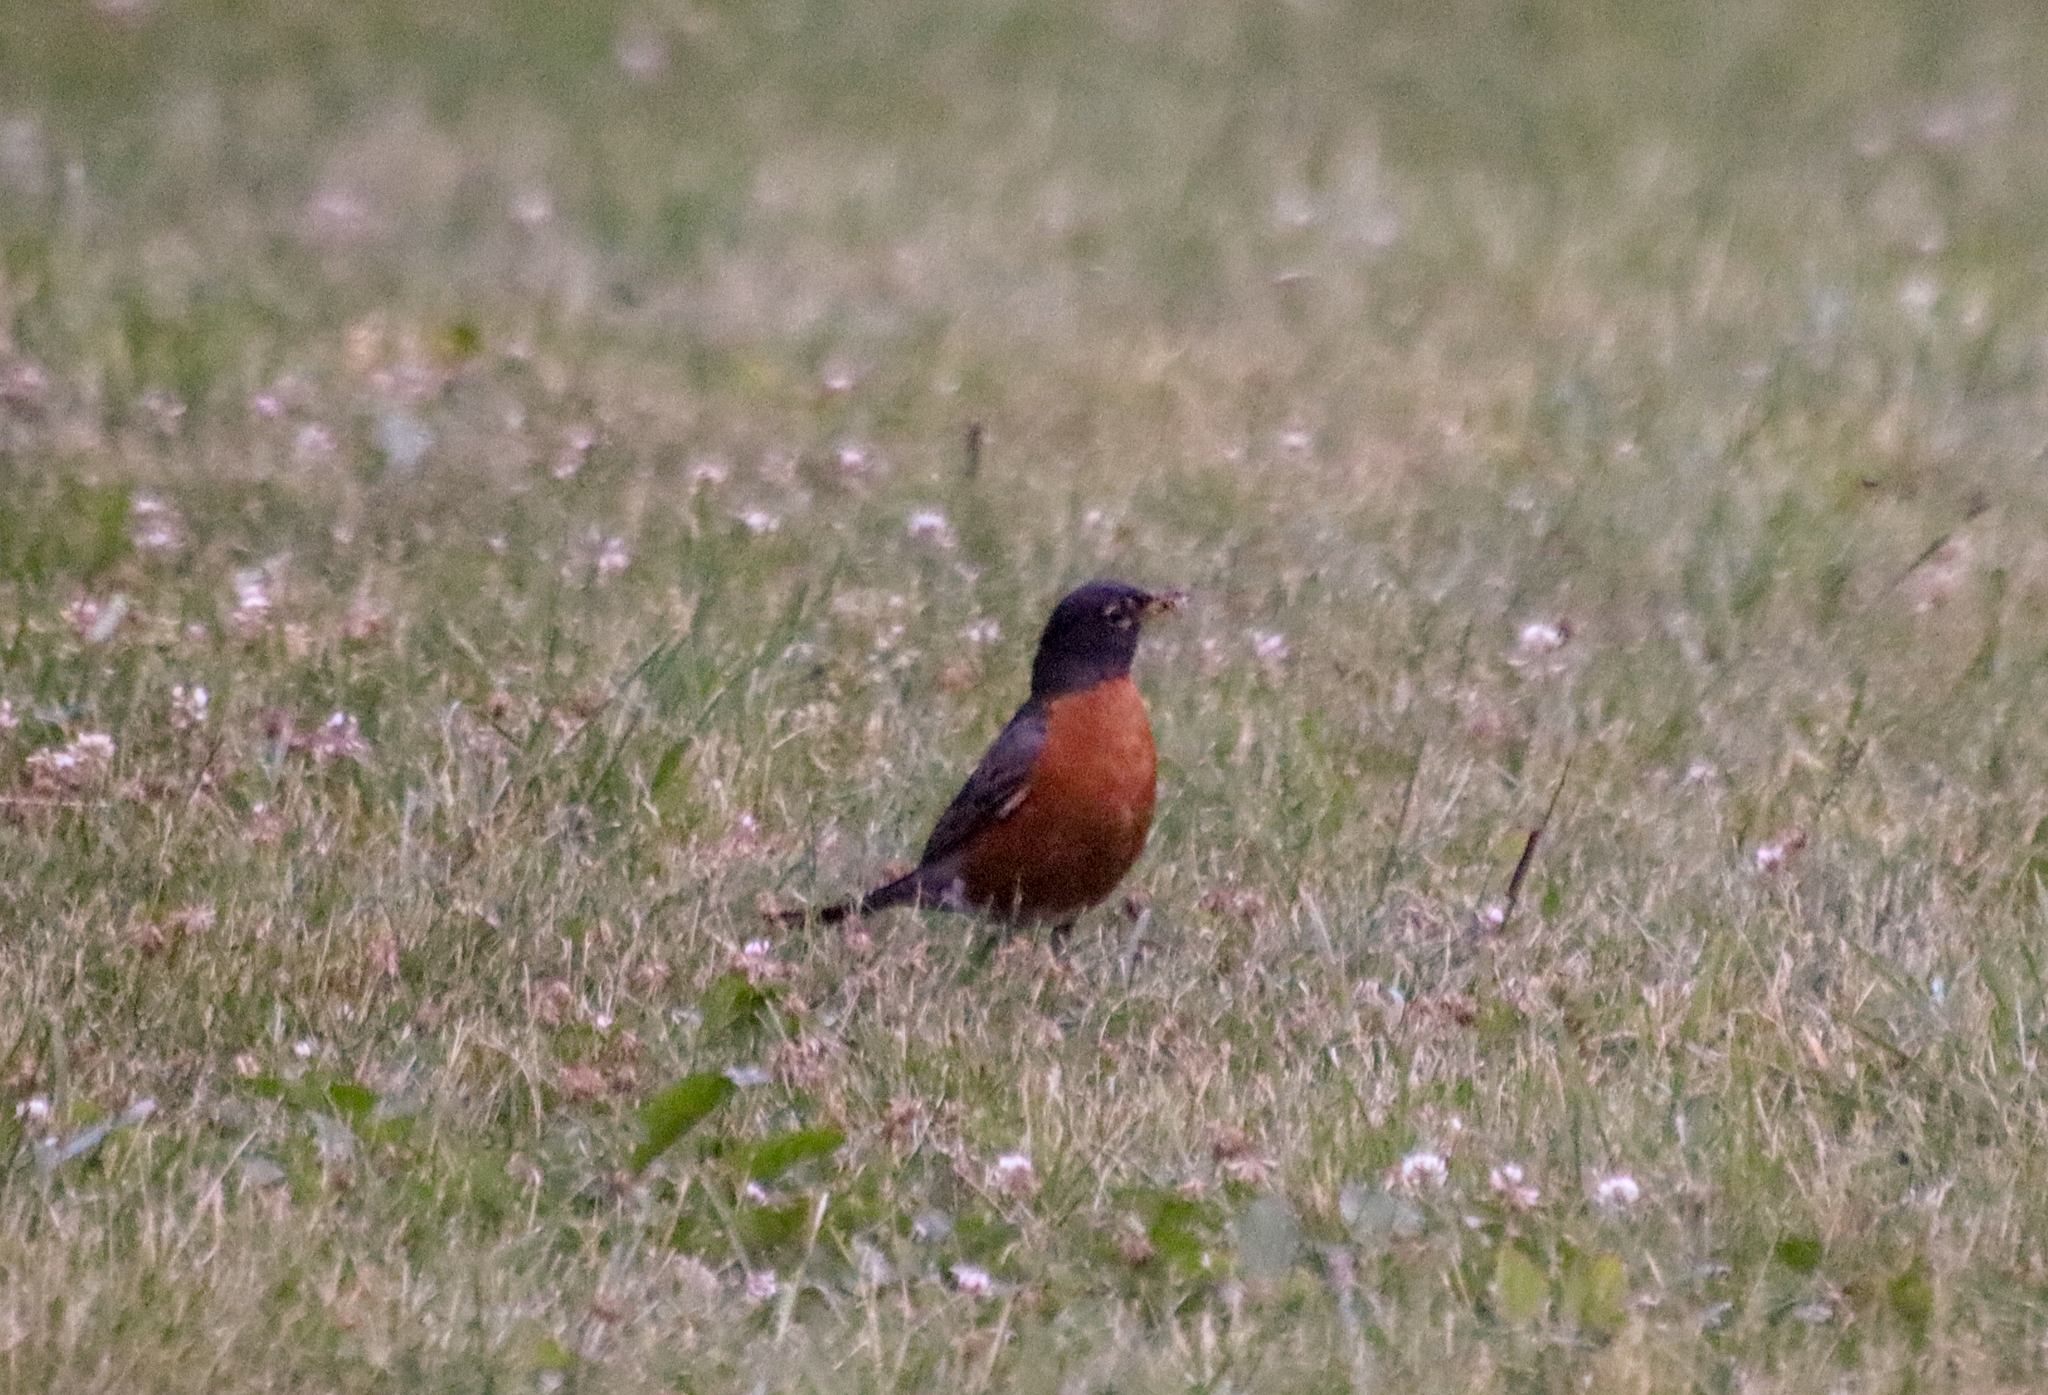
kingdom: Animalia
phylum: Chordata
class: Aves
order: Passeriformes
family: Turdidae
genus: Turdus
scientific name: Turdus migratorius
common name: American robin
